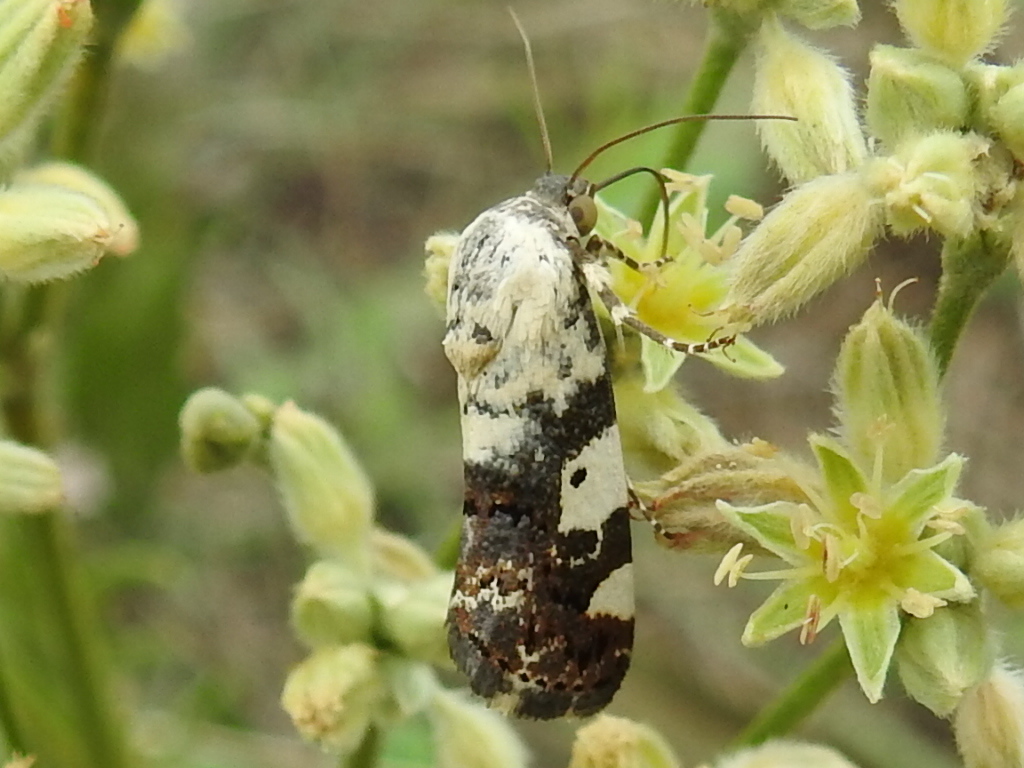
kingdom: Animalia
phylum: Arthropoda
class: Insecta
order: Lepidoptera
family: Noctuidae
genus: Acontia
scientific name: Acontia aprica
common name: Nun
